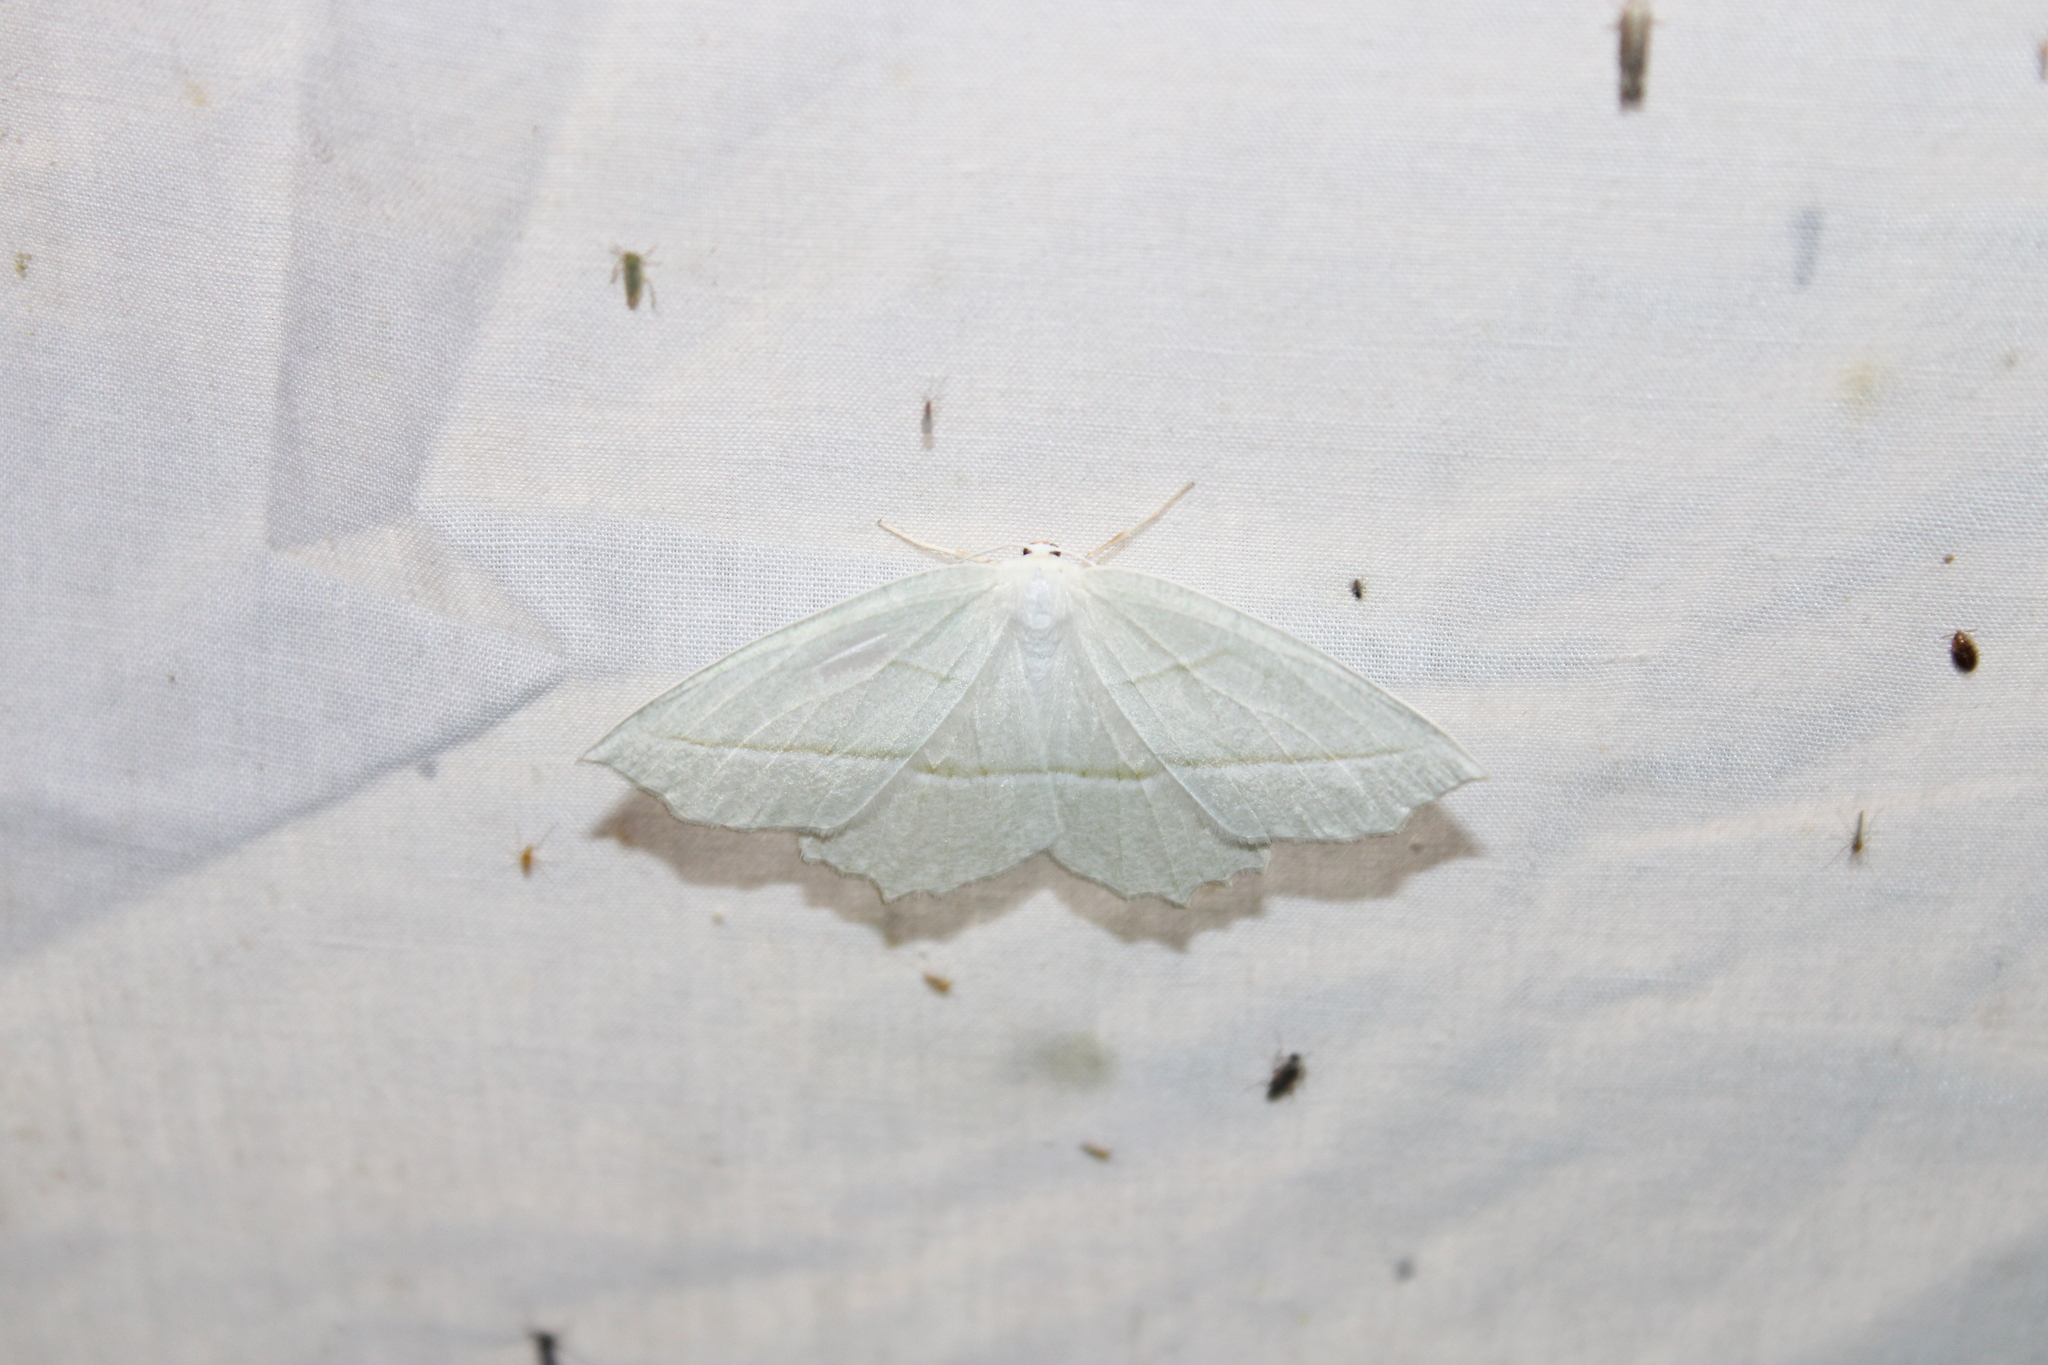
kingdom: Animalia
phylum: Arthropoda
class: Insecta
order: Lepidoptera
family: Geometridae
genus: Campaea
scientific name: Campaea perlata
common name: Fringed looper
